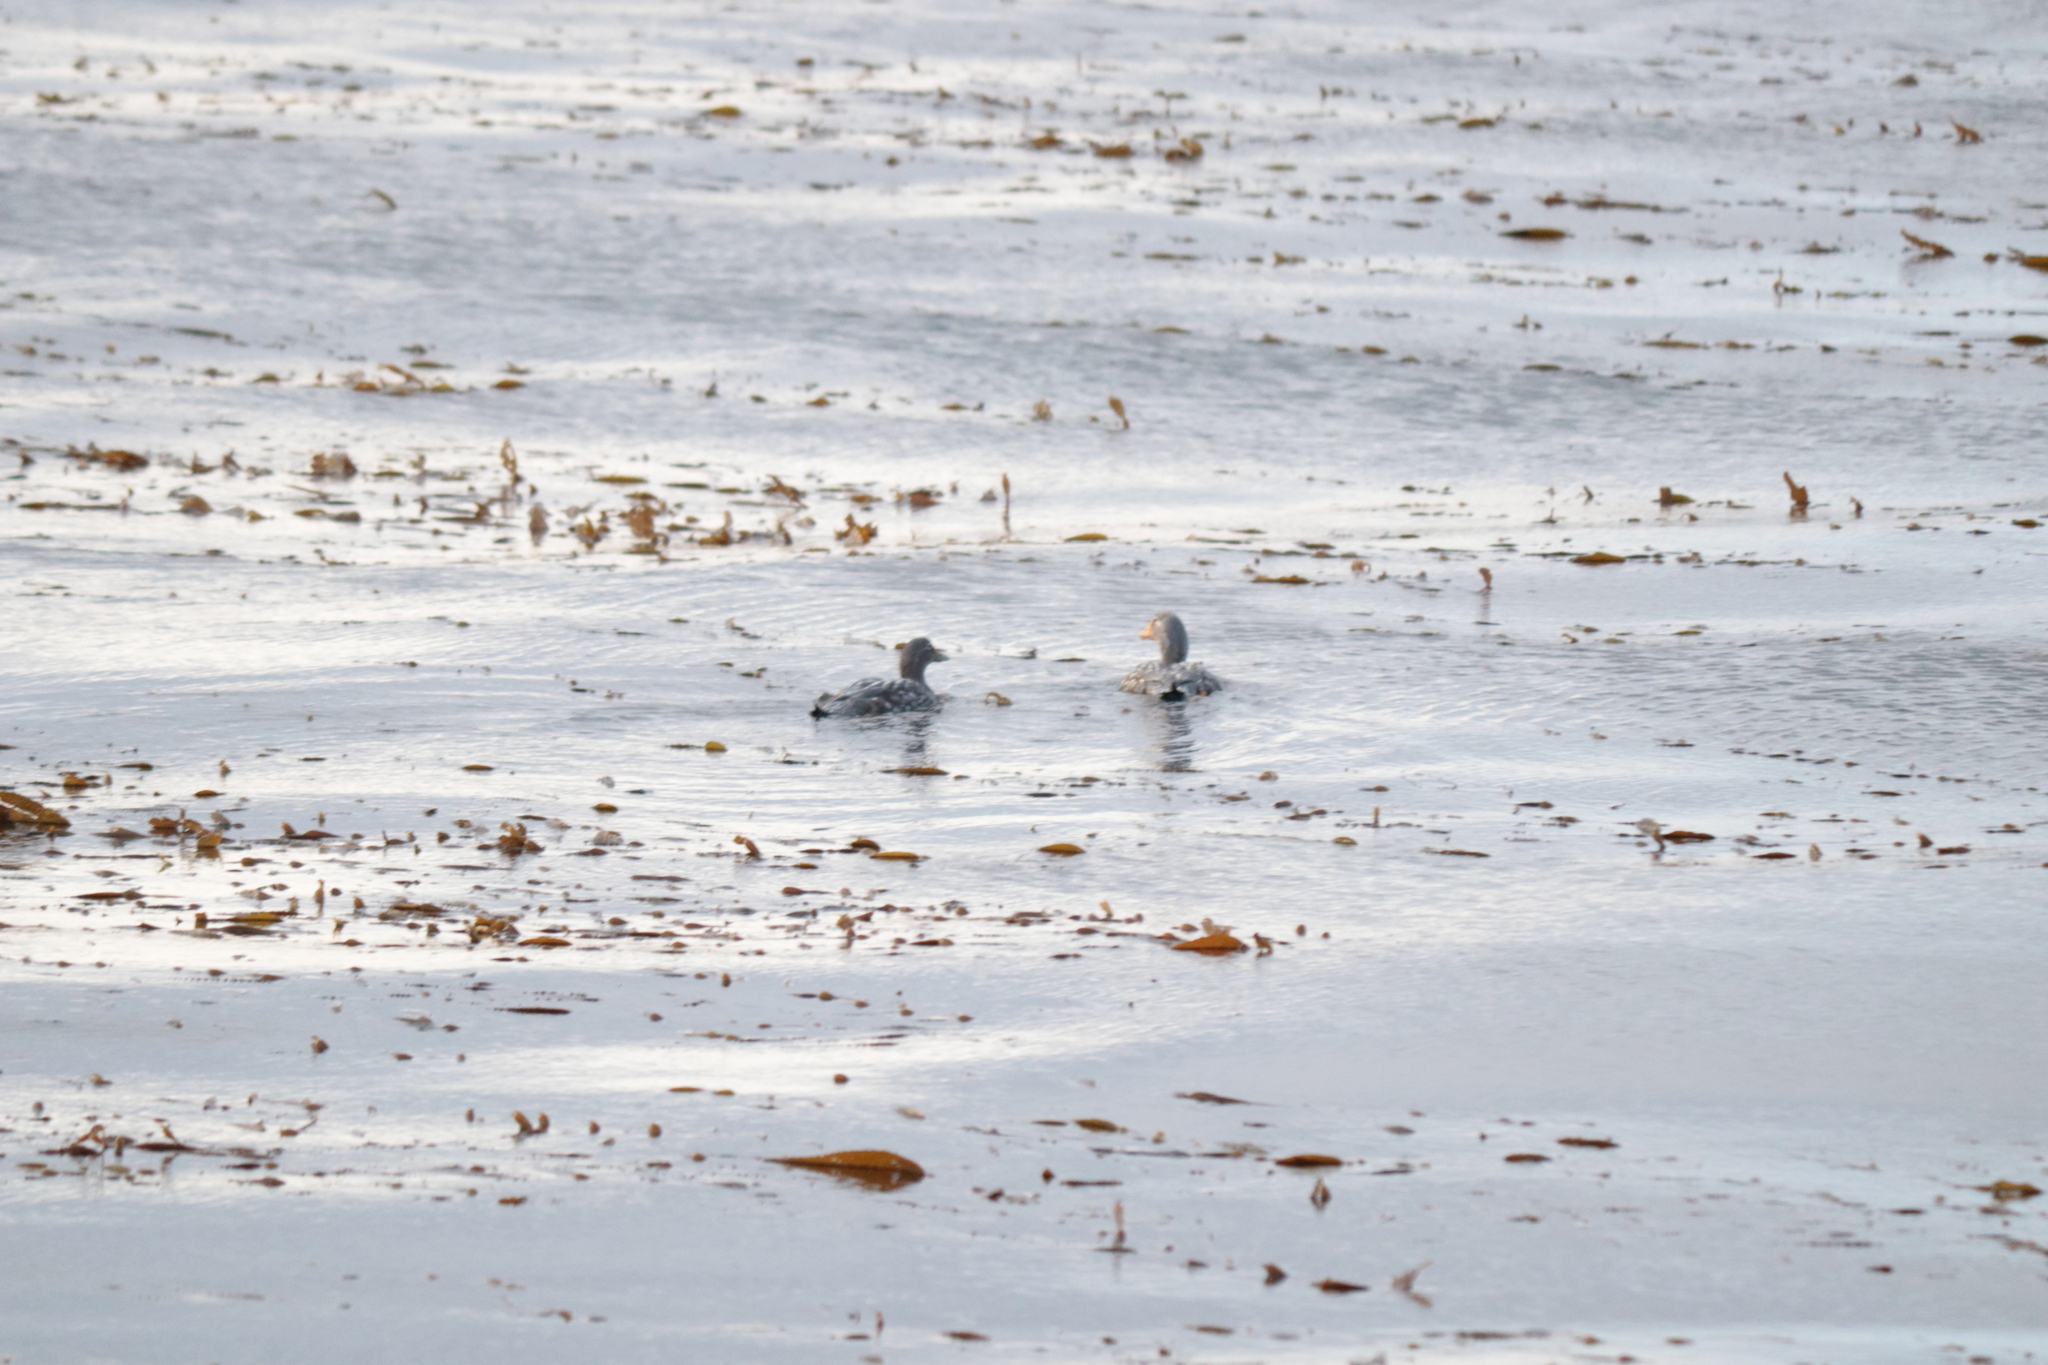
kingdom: Animalia
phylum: Chordata
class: Aves
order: Anseriformes
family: Anatidae
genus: Tachyeres
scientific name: Tachyeres patachonicus
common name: Flying steamer duck
